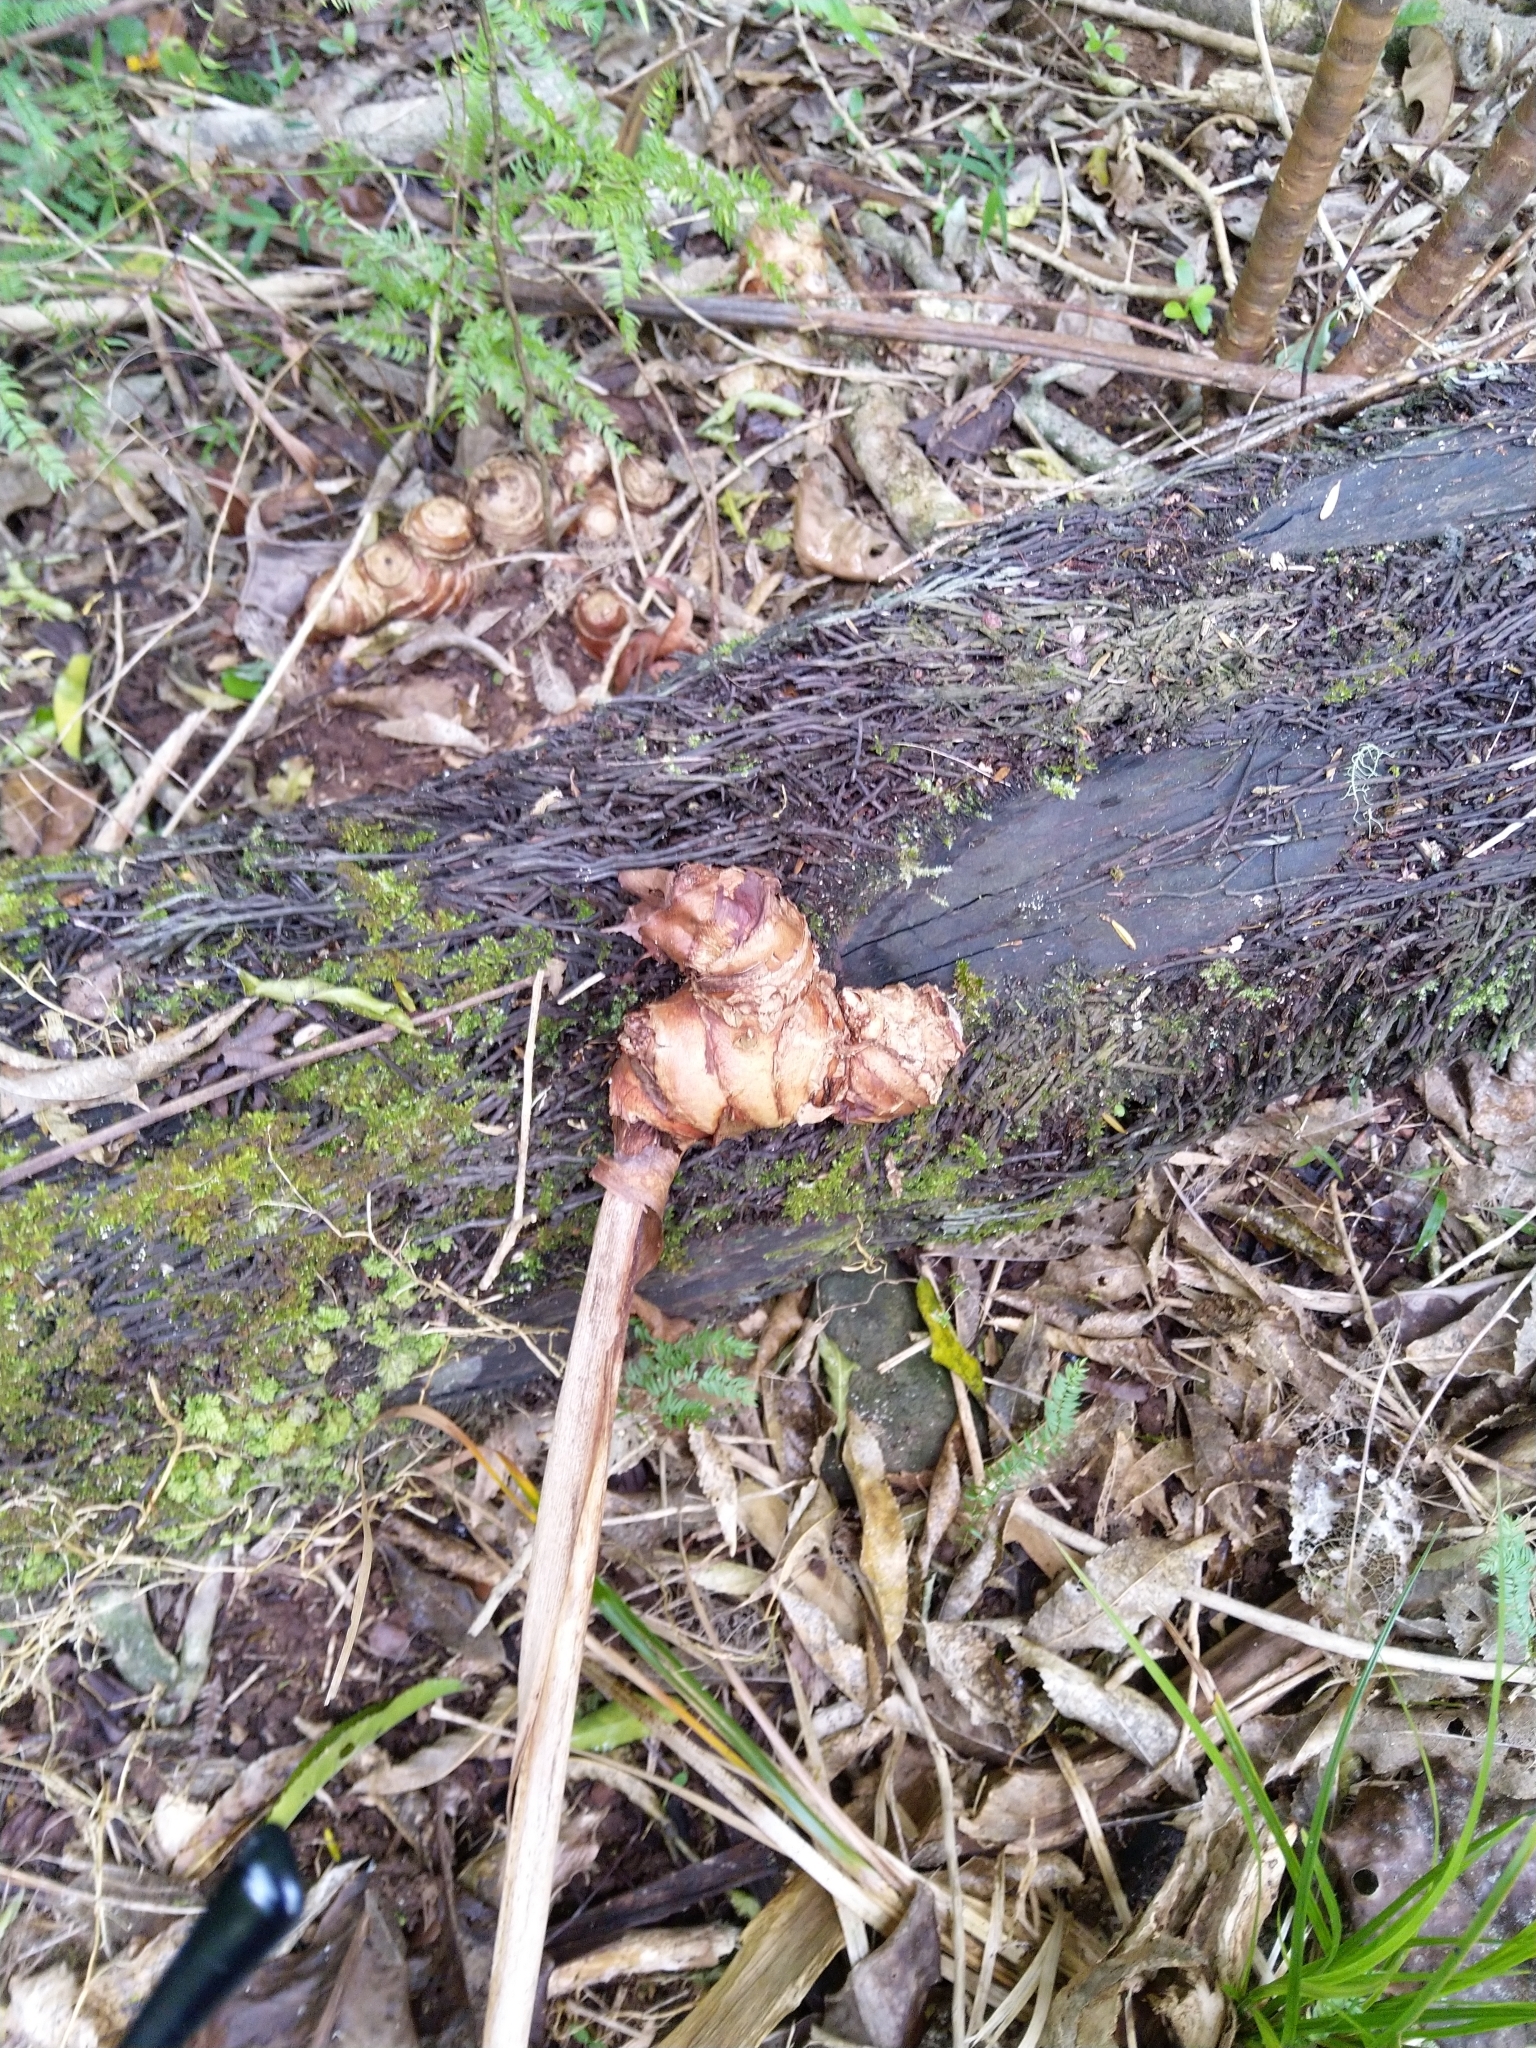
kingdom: Plantae
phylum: Tracheophyta
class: Liliopsida
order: Zingiberales
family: Zingiberaceae
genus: Hedychium
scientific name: Hedychium gardnerianum
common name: Himalayan ginger
